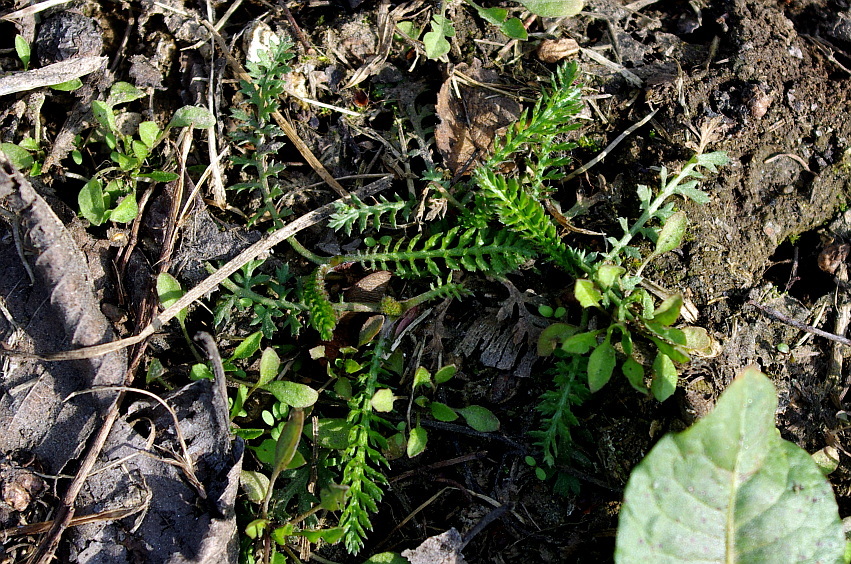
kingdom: Plantae
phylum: Tracheophyta
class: Magnoliopsida
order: Asterales
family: Asteraceae
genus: Achillea
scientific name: Achillea millefolium
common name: Yarrow
